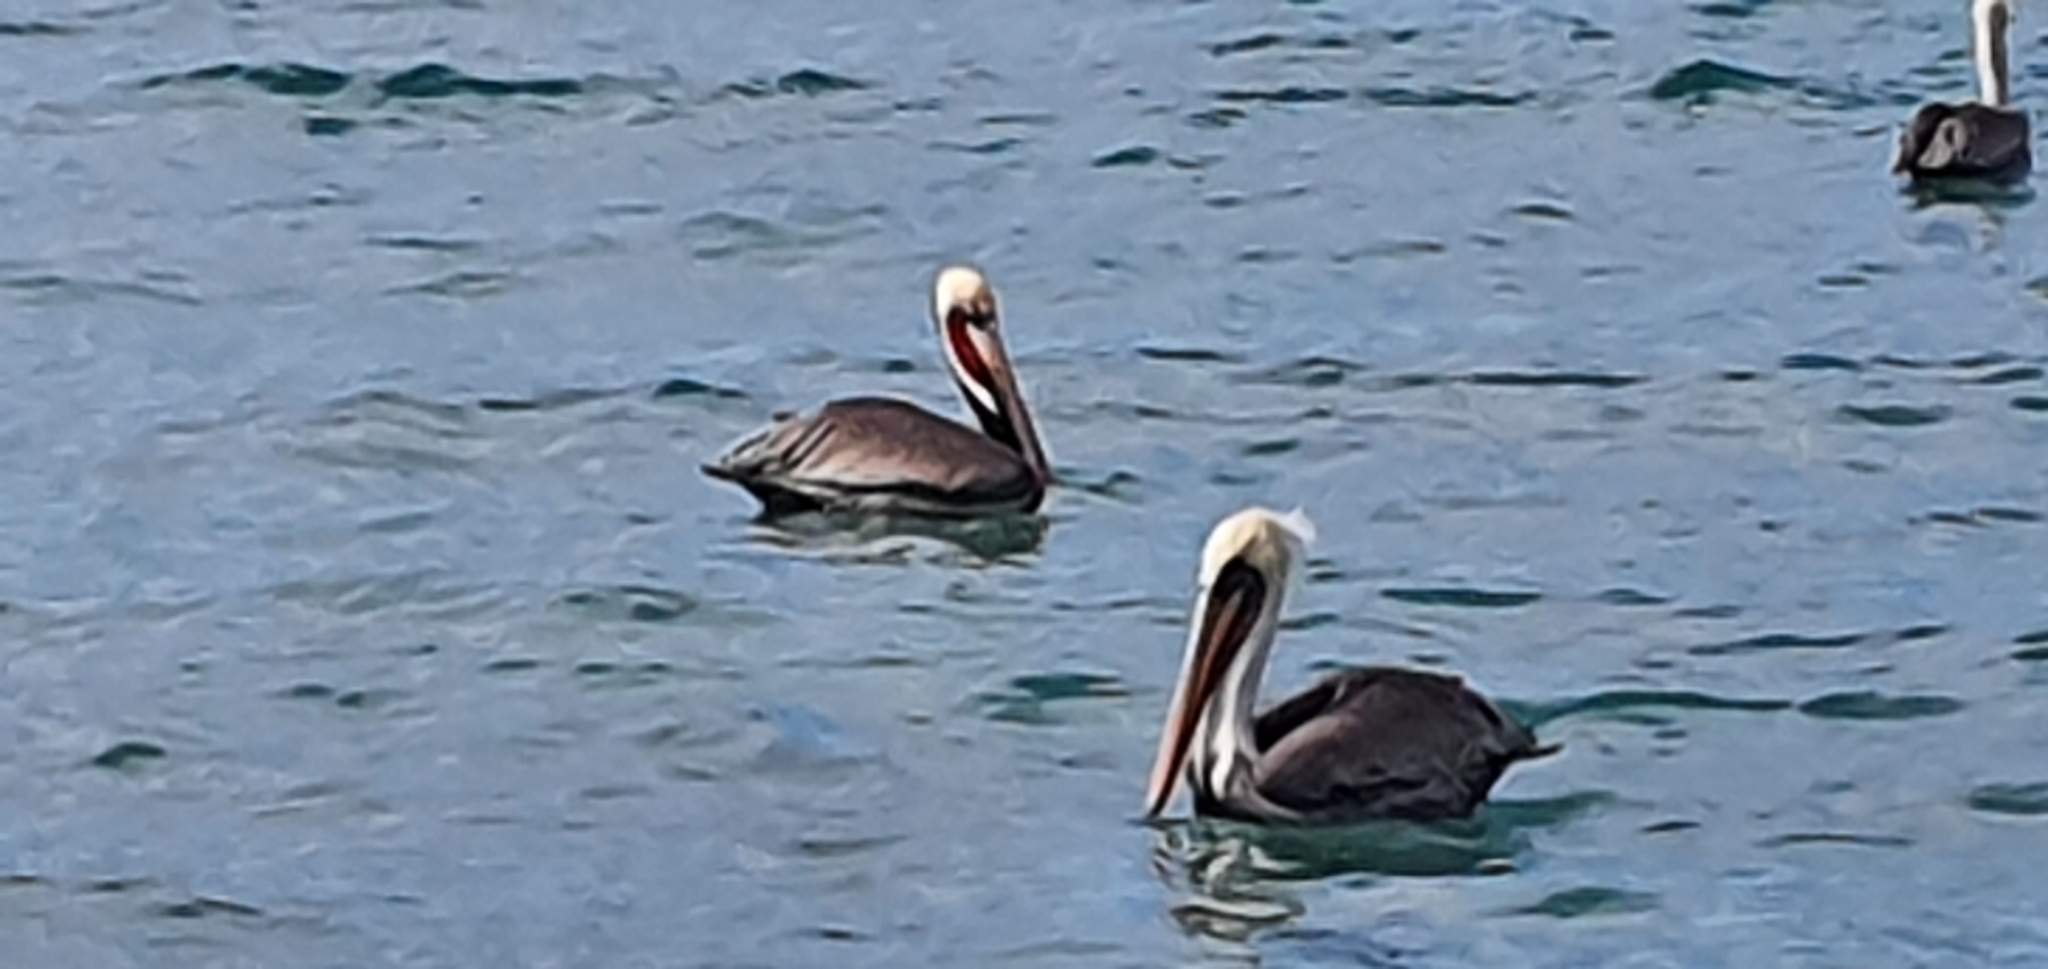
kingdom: Animalia
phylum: Chordata
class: Aves
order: Pelecaniformes
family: Pelecanidae
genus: Pelecanus
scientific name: Pelecanus occidentalis
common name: Brown pelican
